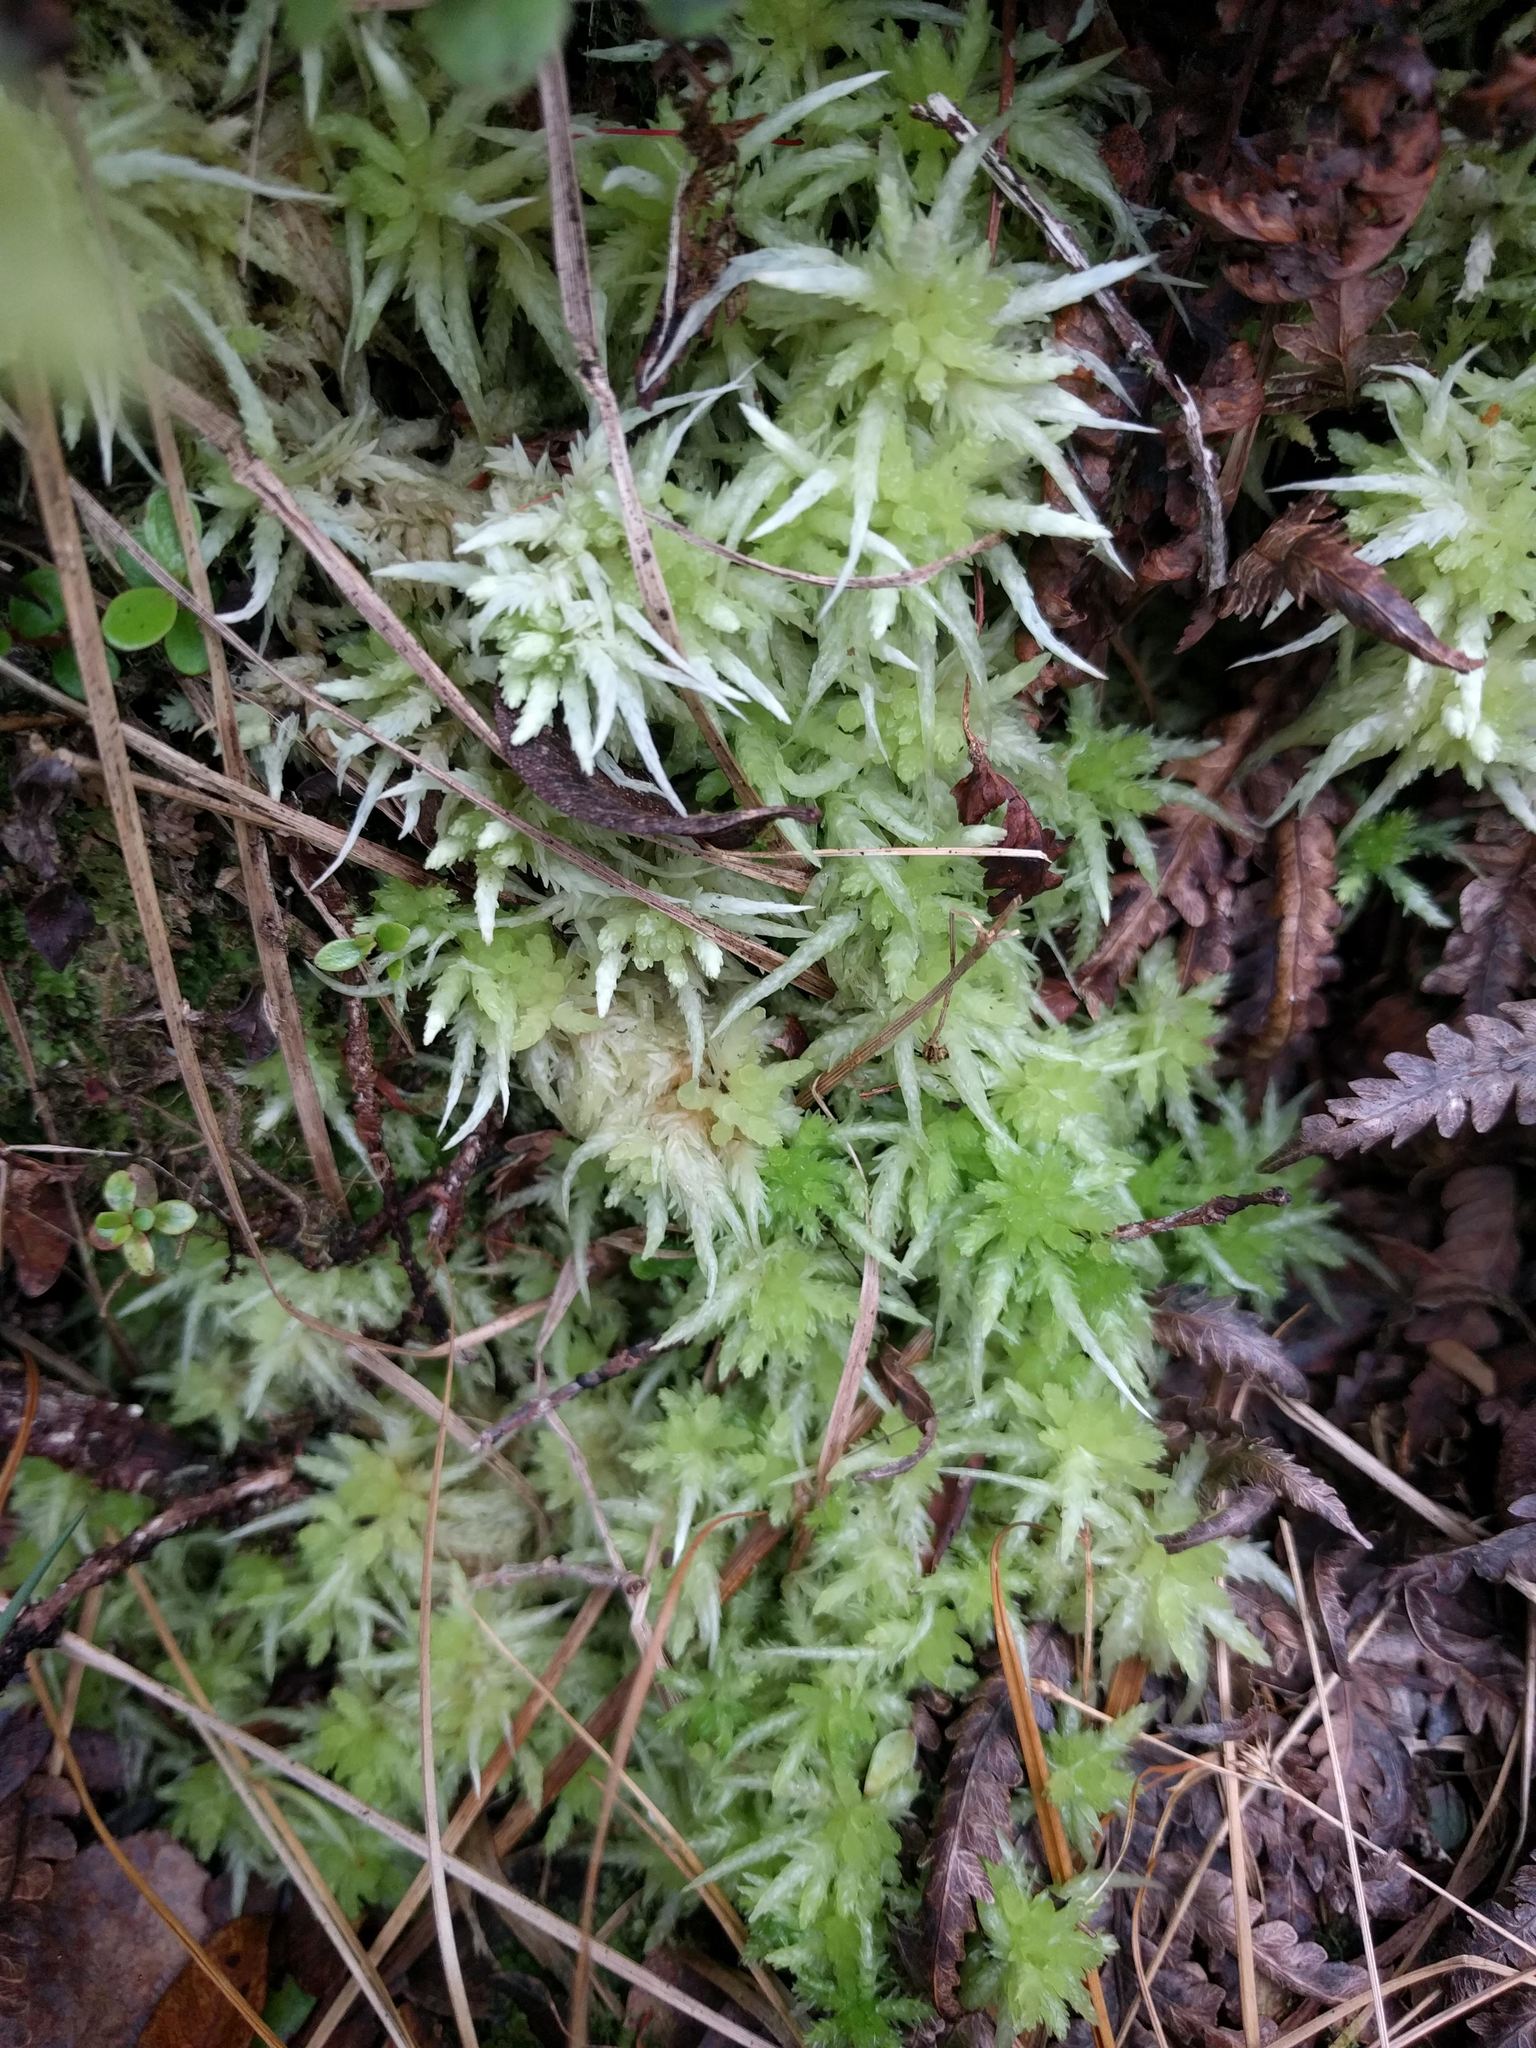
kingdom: Plantae
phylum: Bryophyta
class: Sphagnopsida
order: Sphagnales
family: Sphagnaceae
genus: Sphagnum
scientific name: Sphagnum palustre
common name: Blunt-leaved bog-moss
